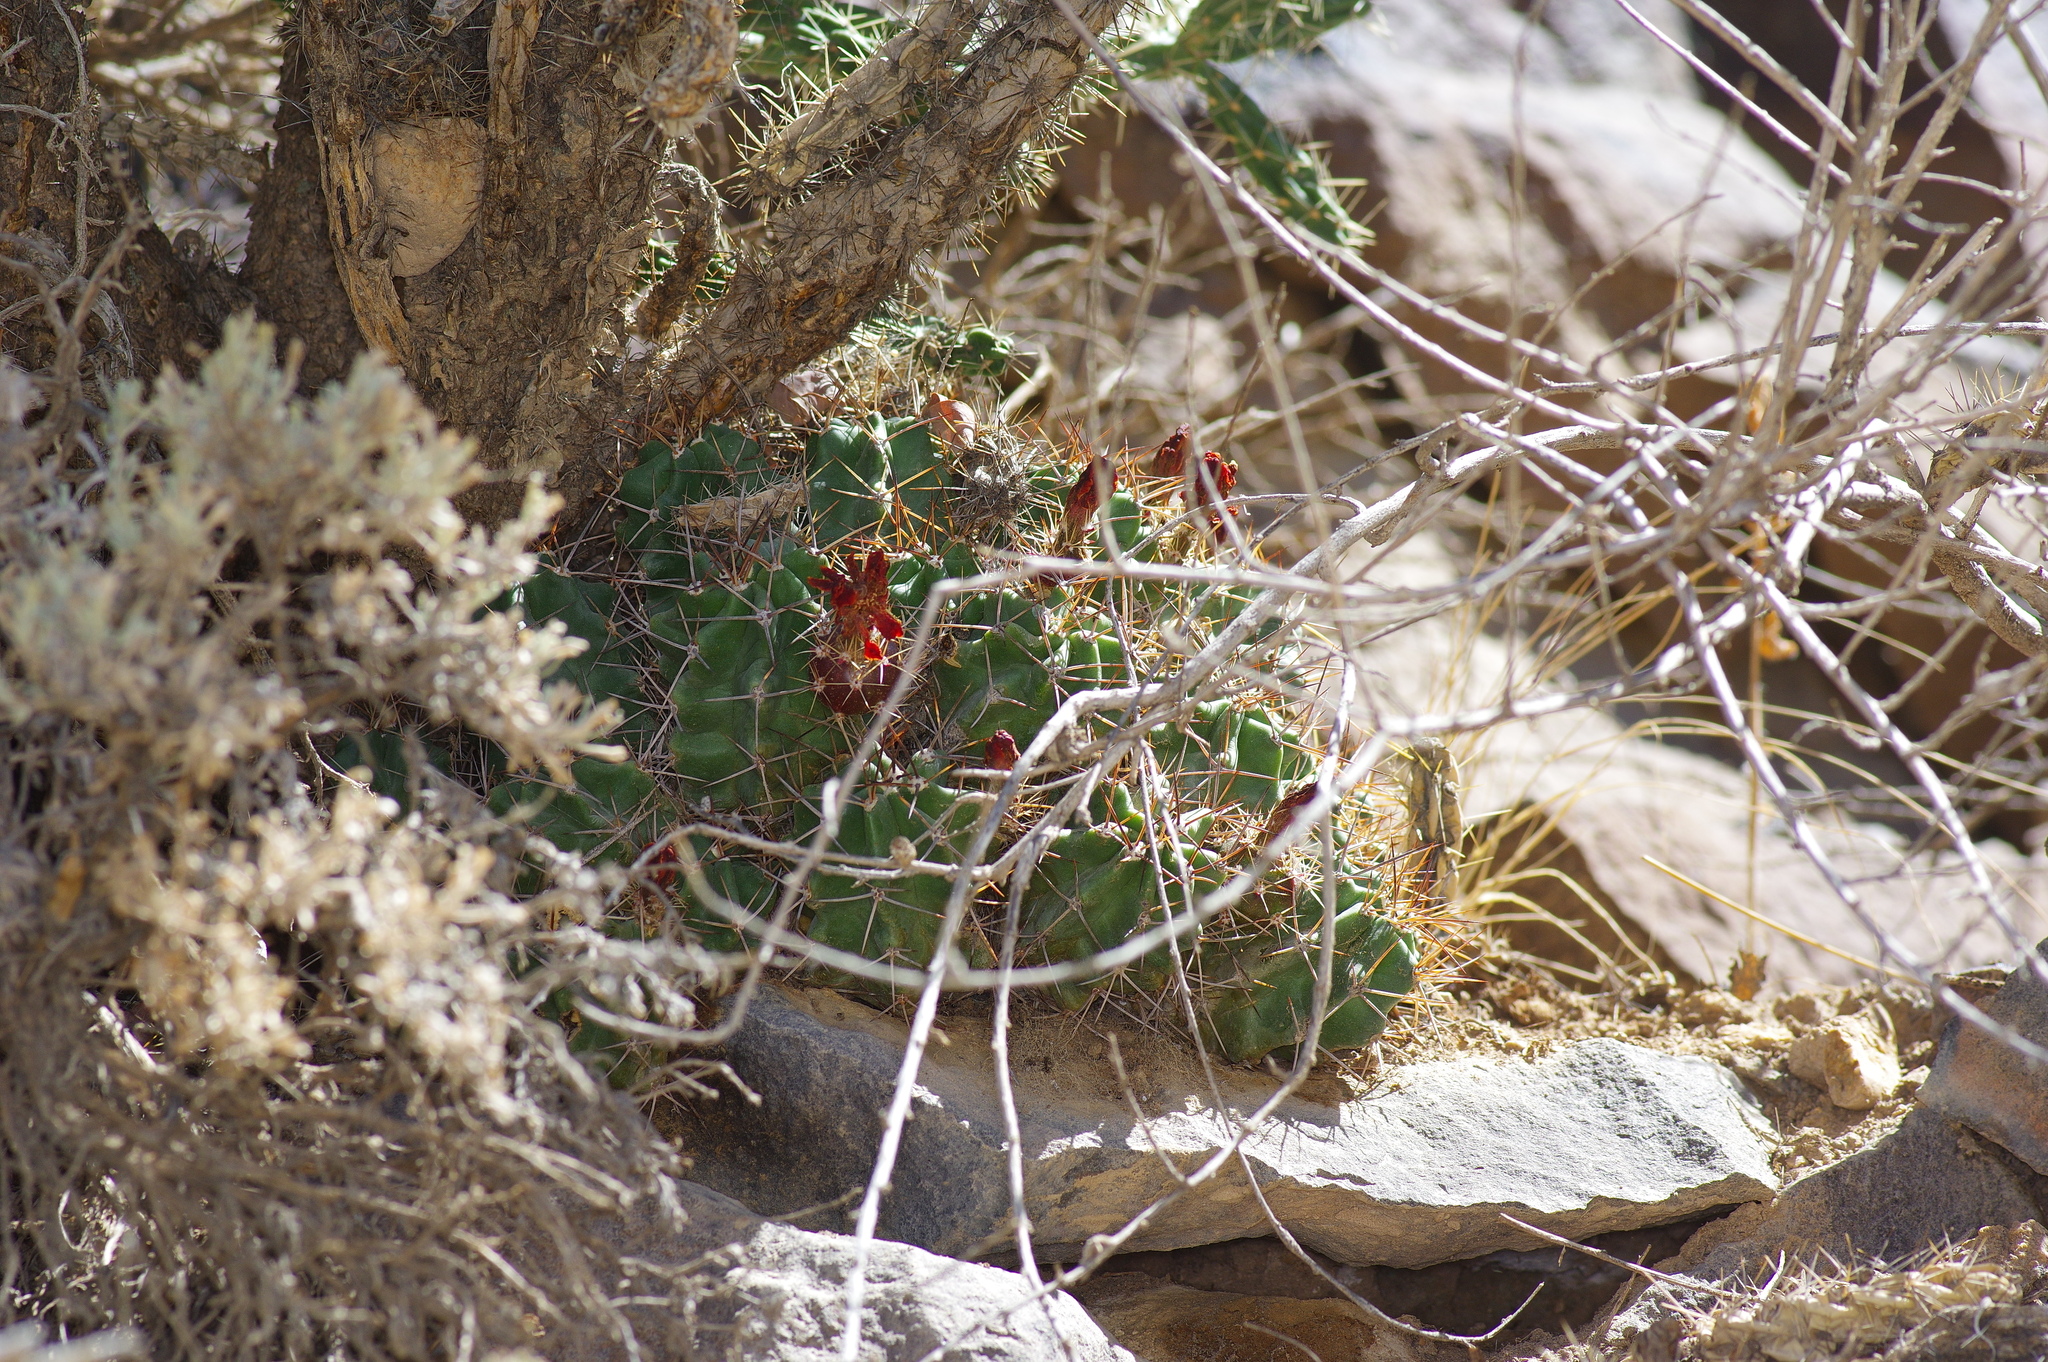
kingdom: Plantae
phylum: Tracheophyta
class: Magnoliopsida
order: Caryophyllales
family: Cactaceae
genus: Echinocereus
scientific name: Echinocereus triglochidiatus
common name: Claretcup hedgehog
